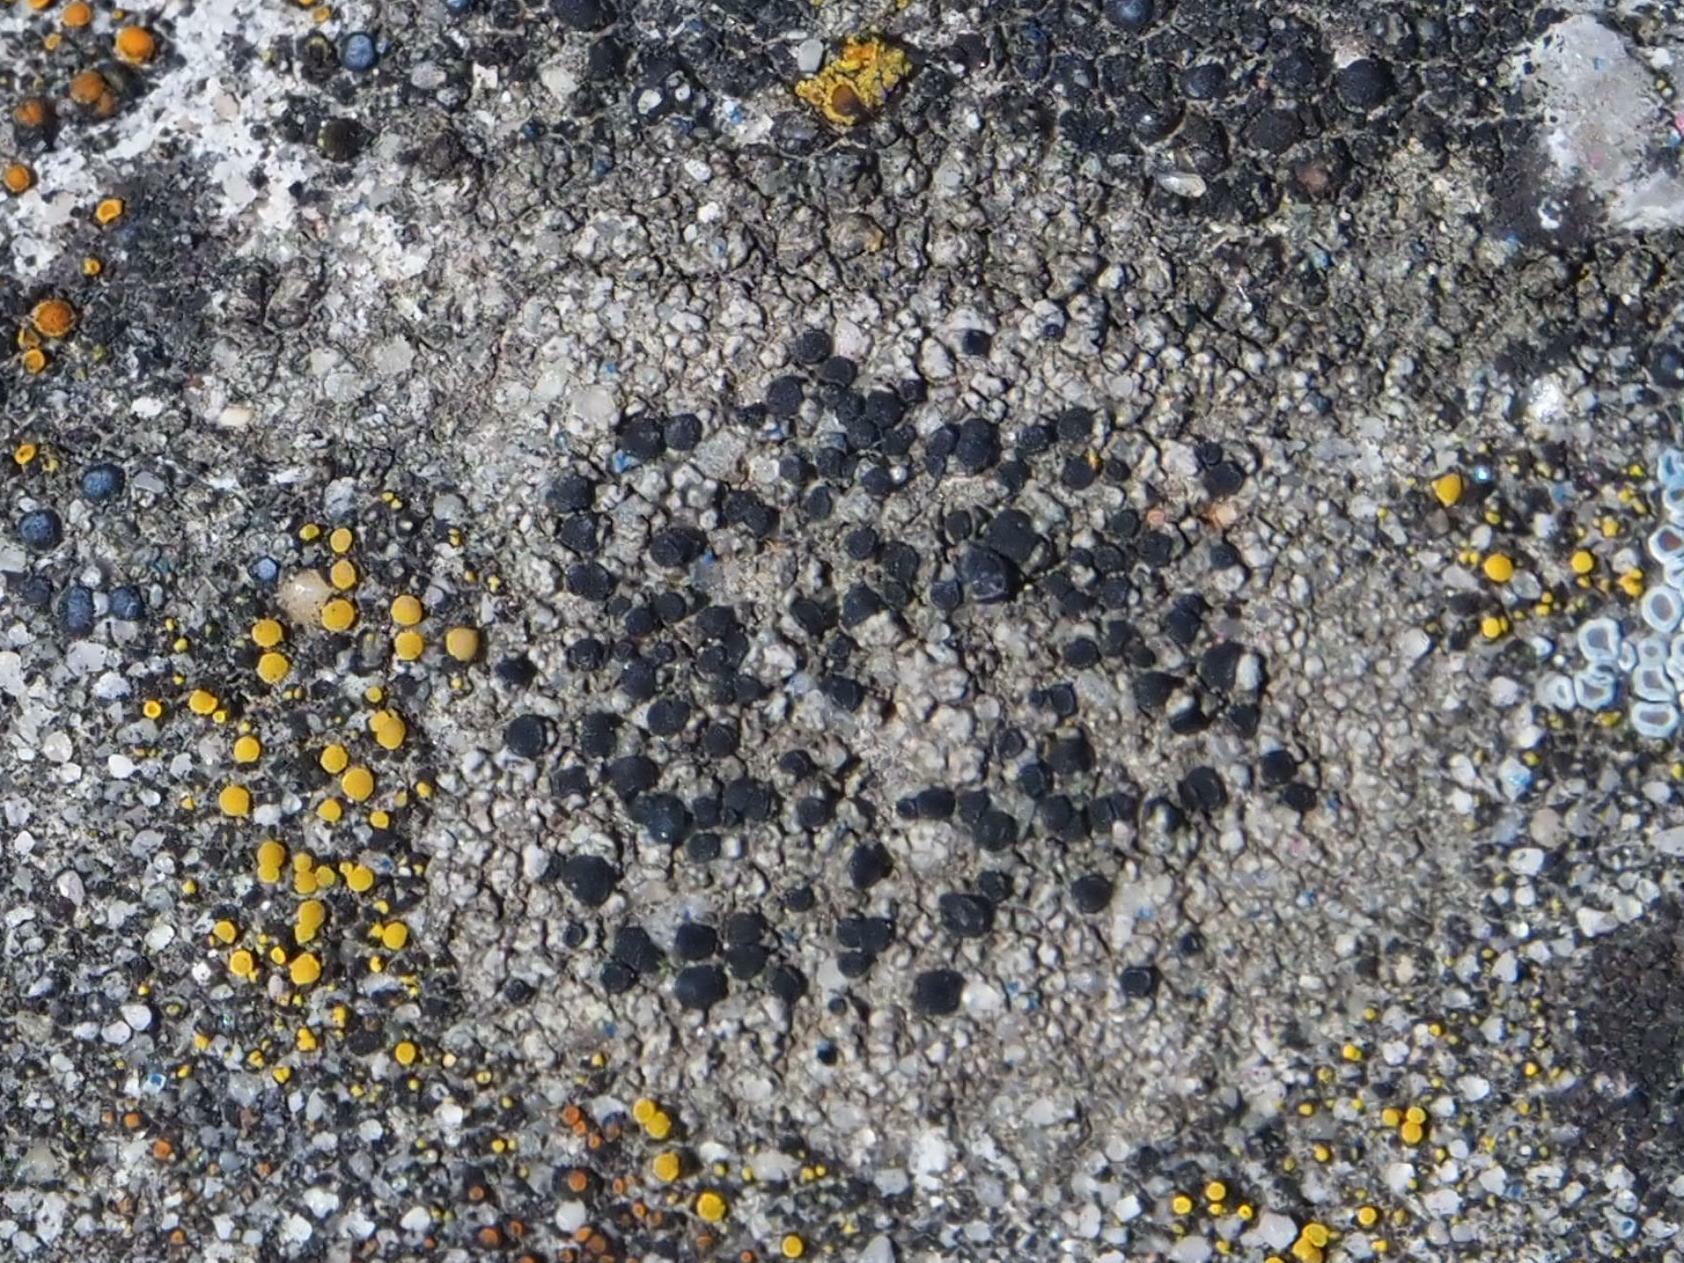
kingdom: Fungi
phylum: Ascomycota
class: Lecanoromycetes
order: Lecanorales
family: Lecanoraceae
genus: Lecidella
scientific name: Lecidella stigmatea
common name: Limestone disc lichen
